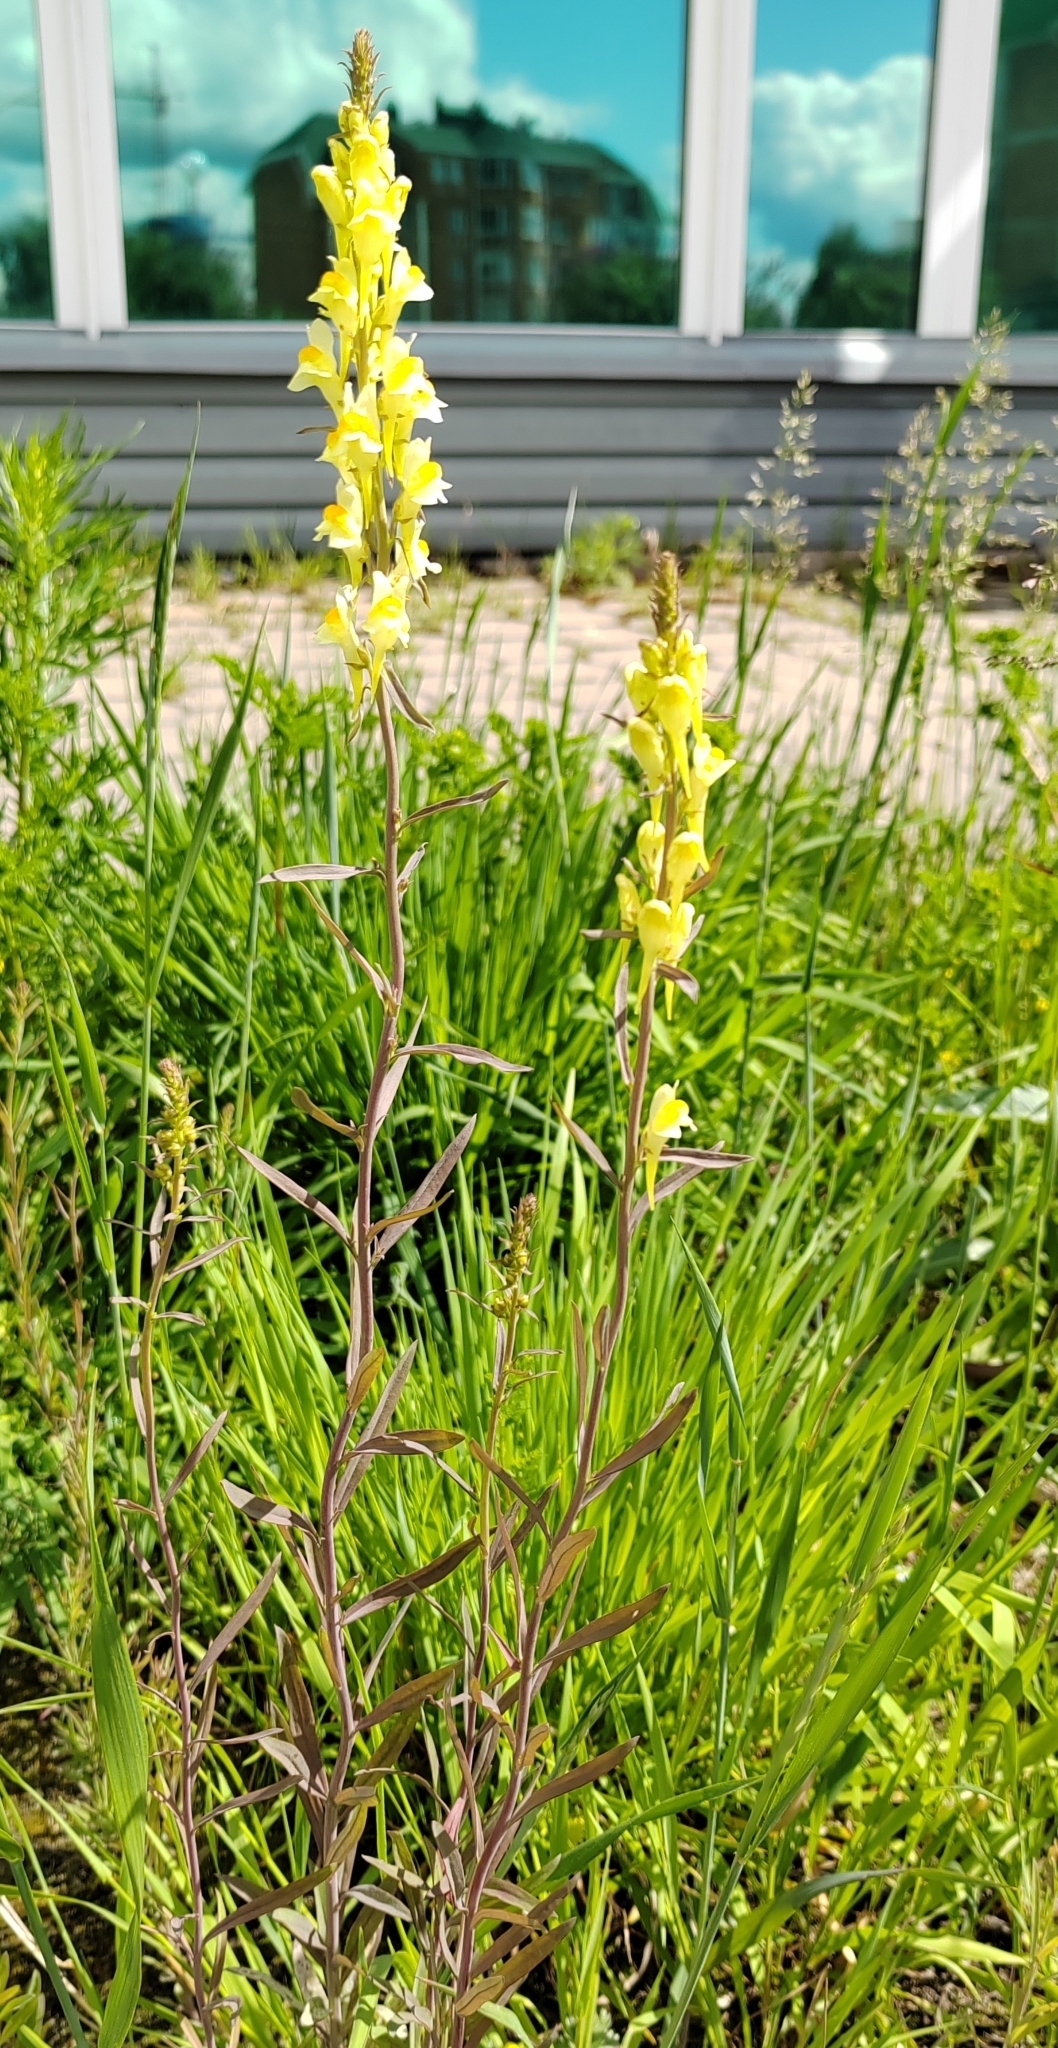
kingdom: Plantae
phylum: Tracheophyta
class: Magnoliopsida
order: Lamiales
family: Plantaginaceae
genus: Linaria
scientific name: Linaria vulgaris
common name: Butter and eggs
